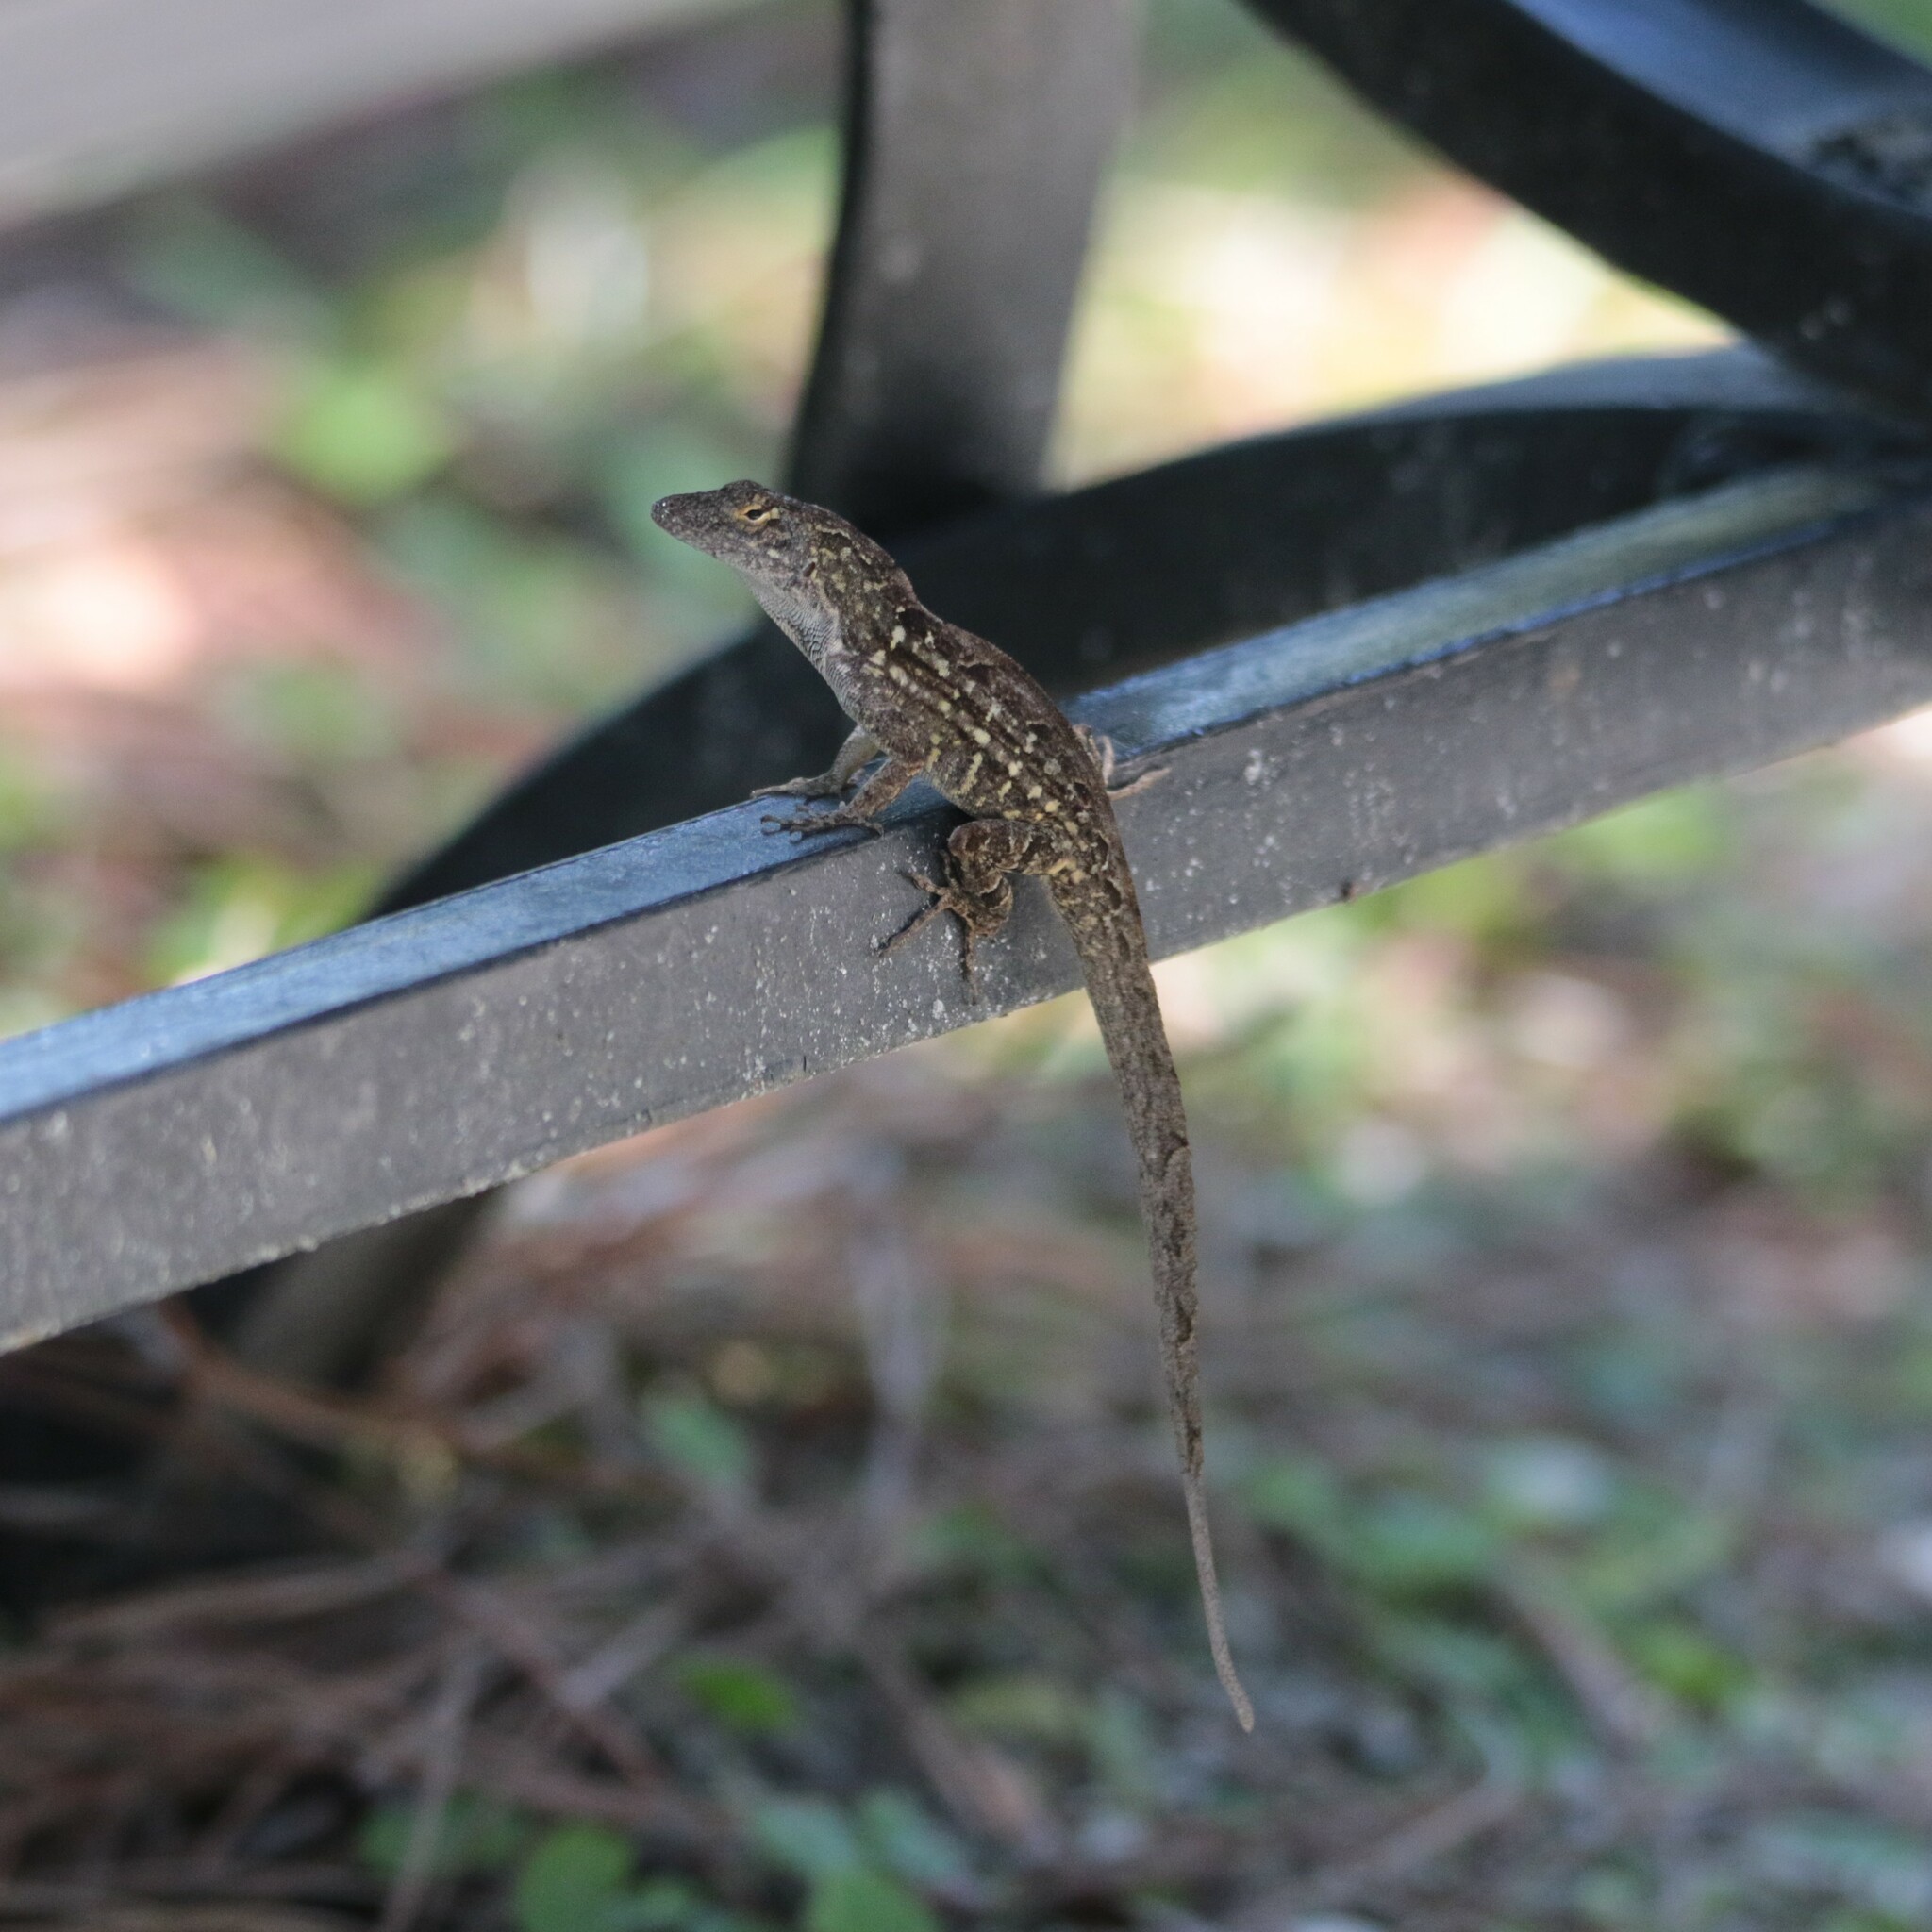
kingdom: Animalia
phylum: Chordata
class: Squamata
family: Dactyloidae
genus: Anolis
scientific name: Anolis sagrei
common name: Brown anole
